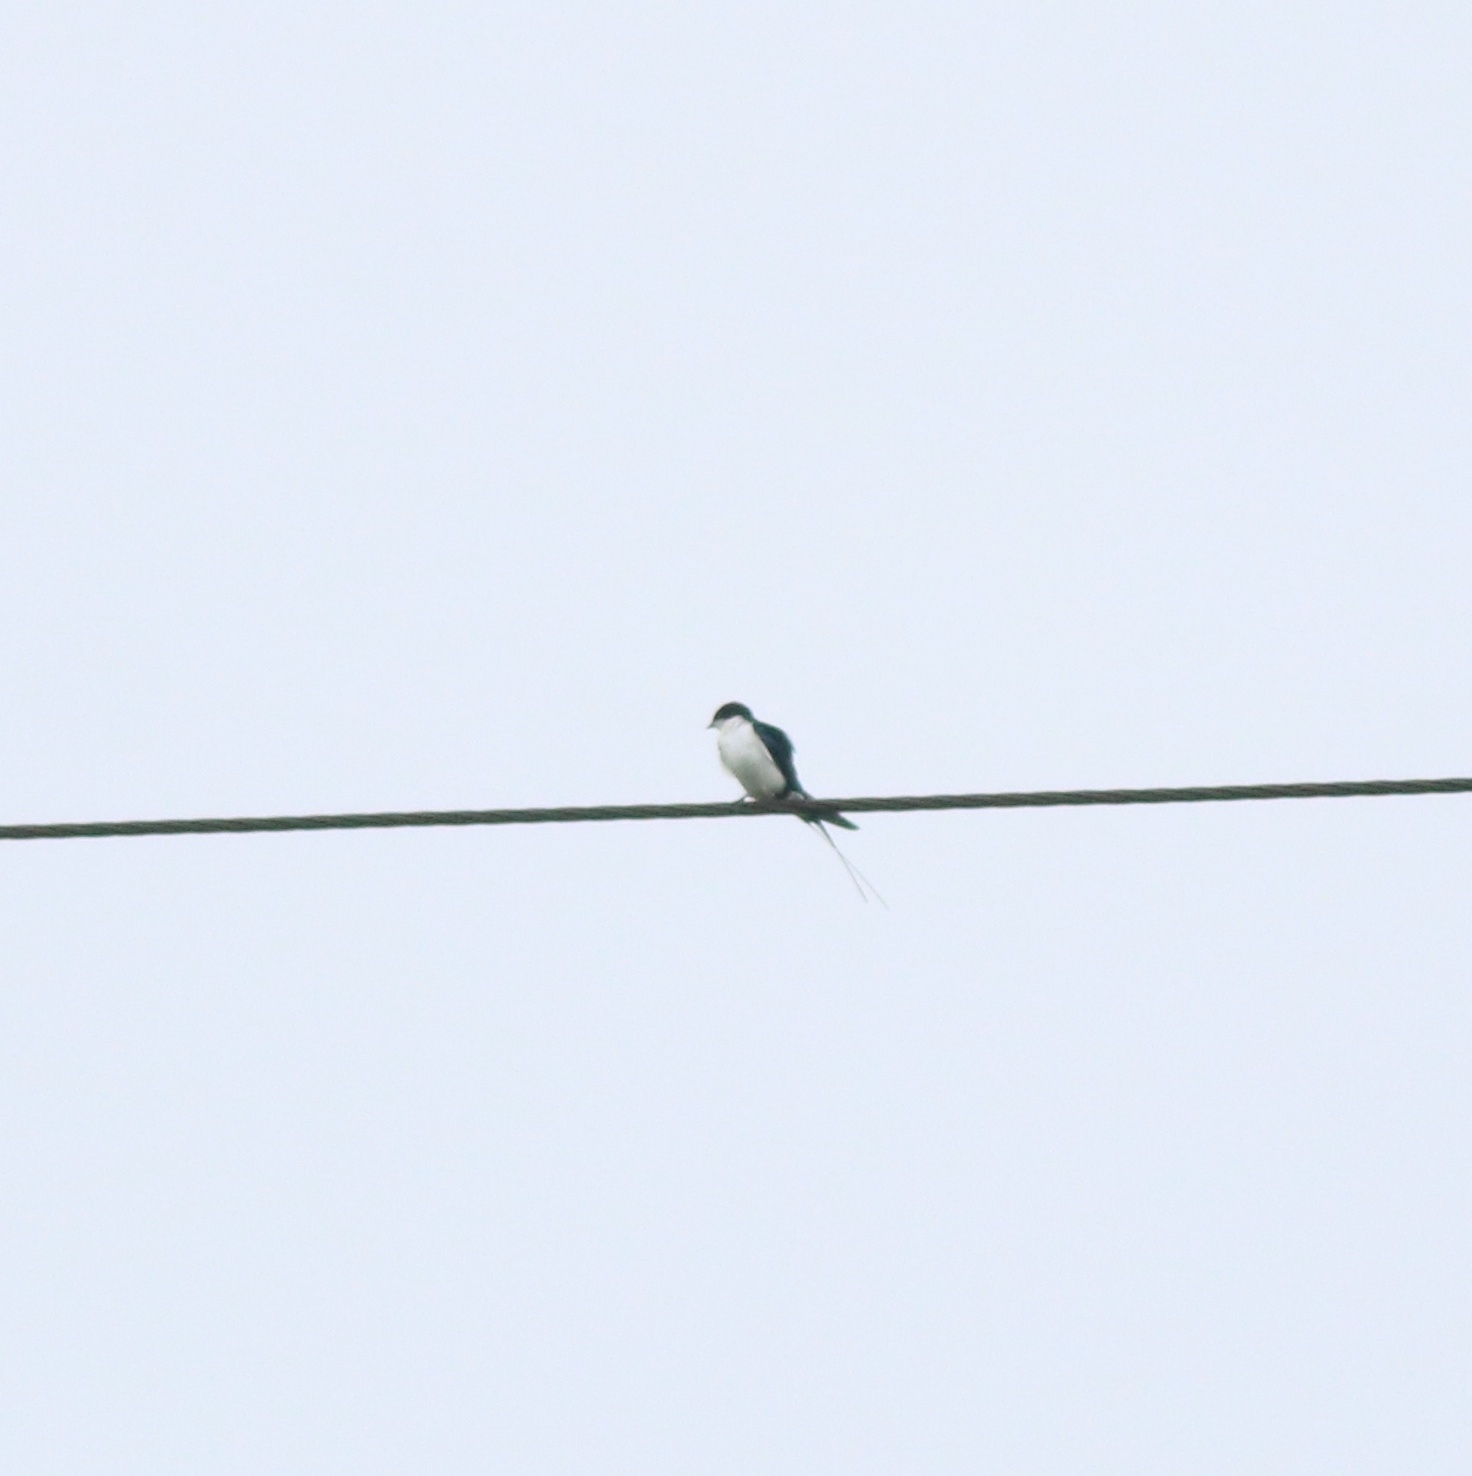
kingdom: Animalia
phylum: Chordata
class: Aves
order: Passeriformes
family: Hirundinidae
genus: Hirundo
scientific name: Hirundo smithii
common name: Wire-tailed swallow
